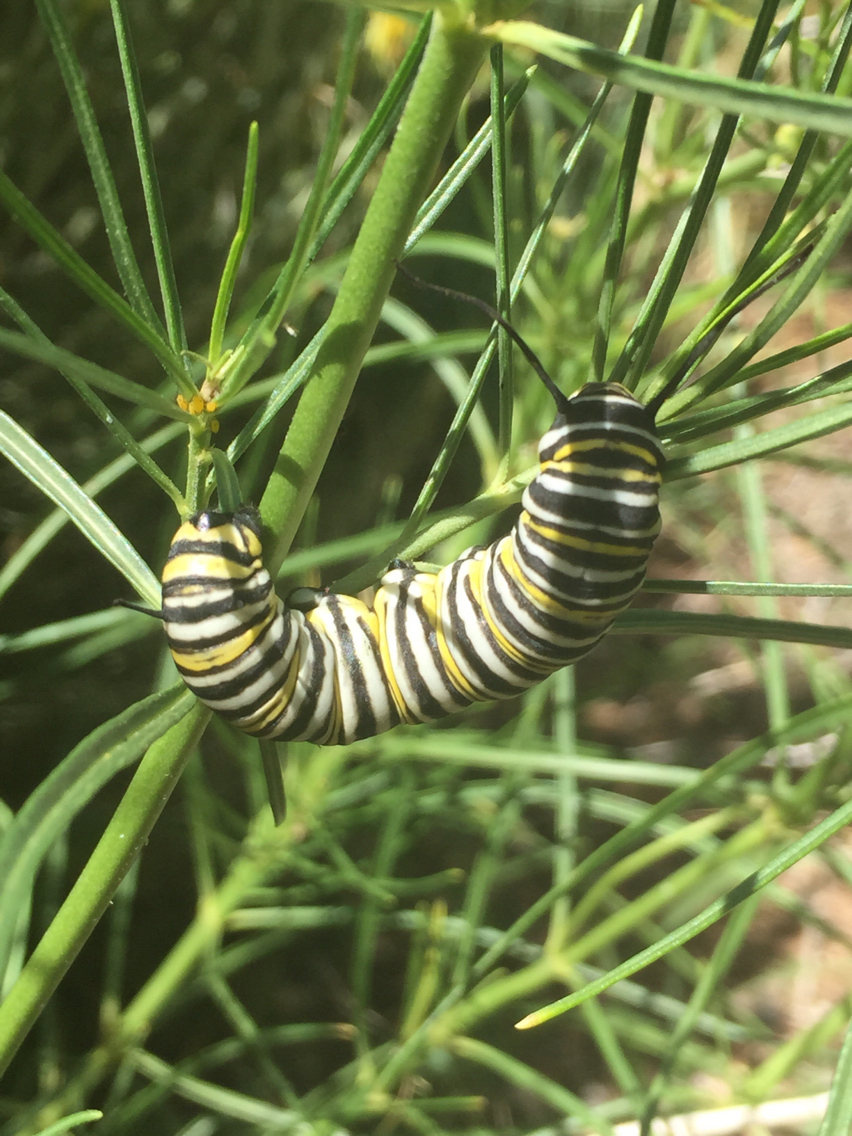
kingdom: Animalia
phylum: Arthropoda
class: Insecta
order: Lepidoptera
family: Nymphalidae
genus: Danaus
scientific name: Danaus plexippus
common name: Monarch
